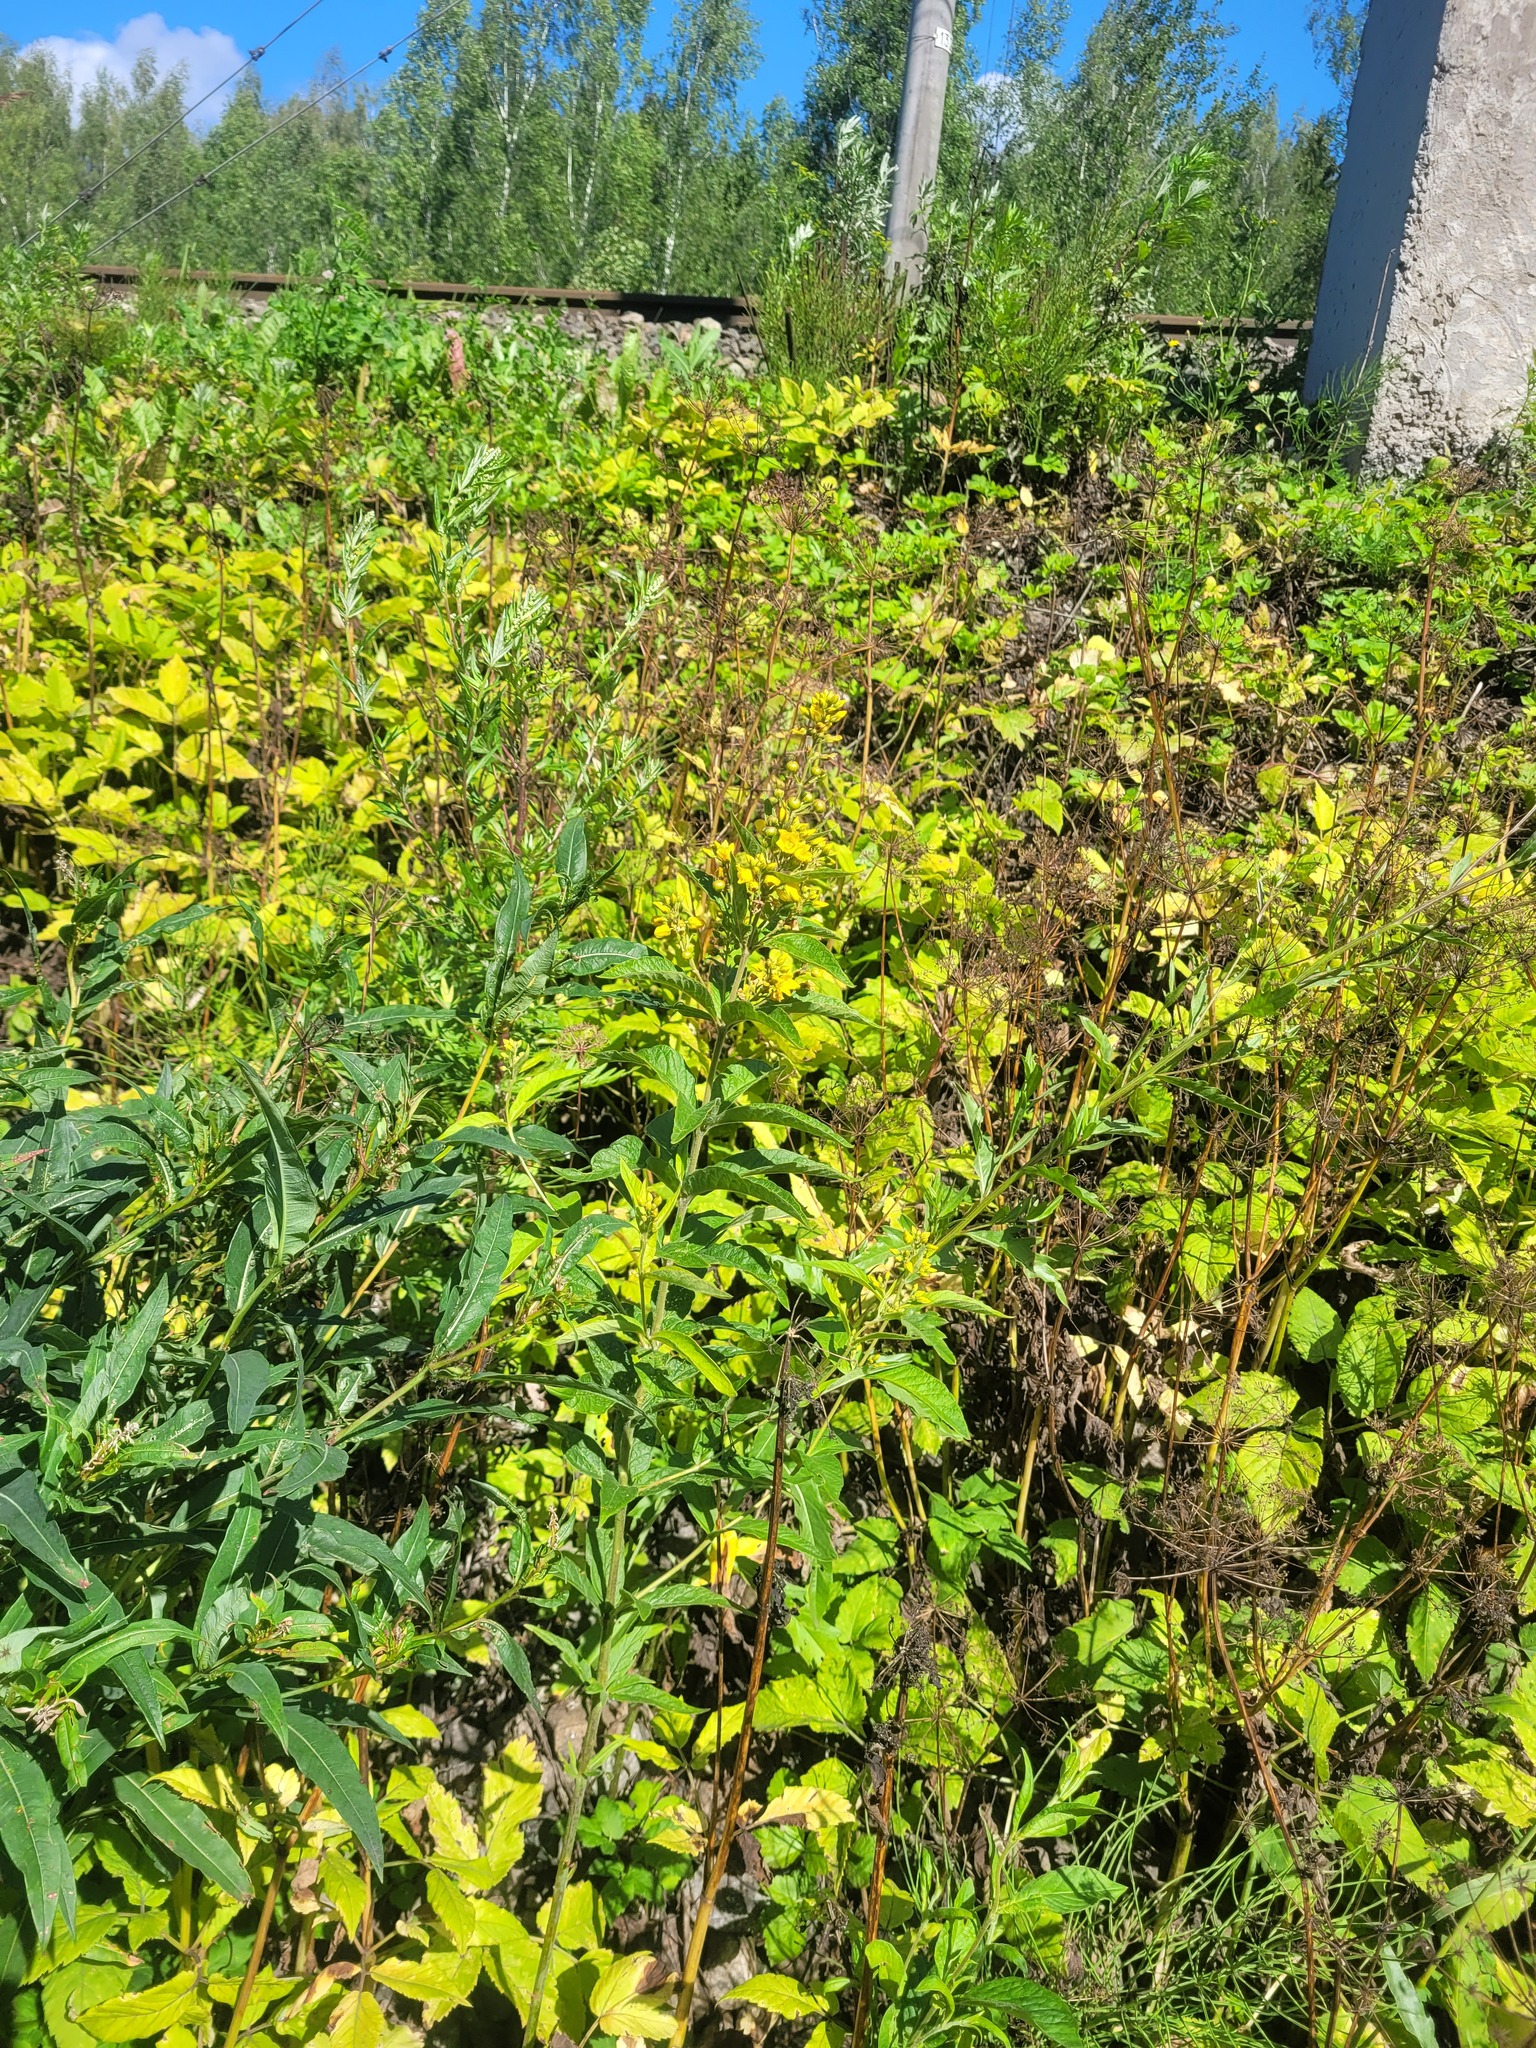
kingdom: Plantae
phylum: Tracheophyta
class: Magnoliopsida
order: Ericales
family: Primulaceae
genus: Lysimachia
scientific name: Lysimachia vulgaris
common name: Yellow loosestrife
